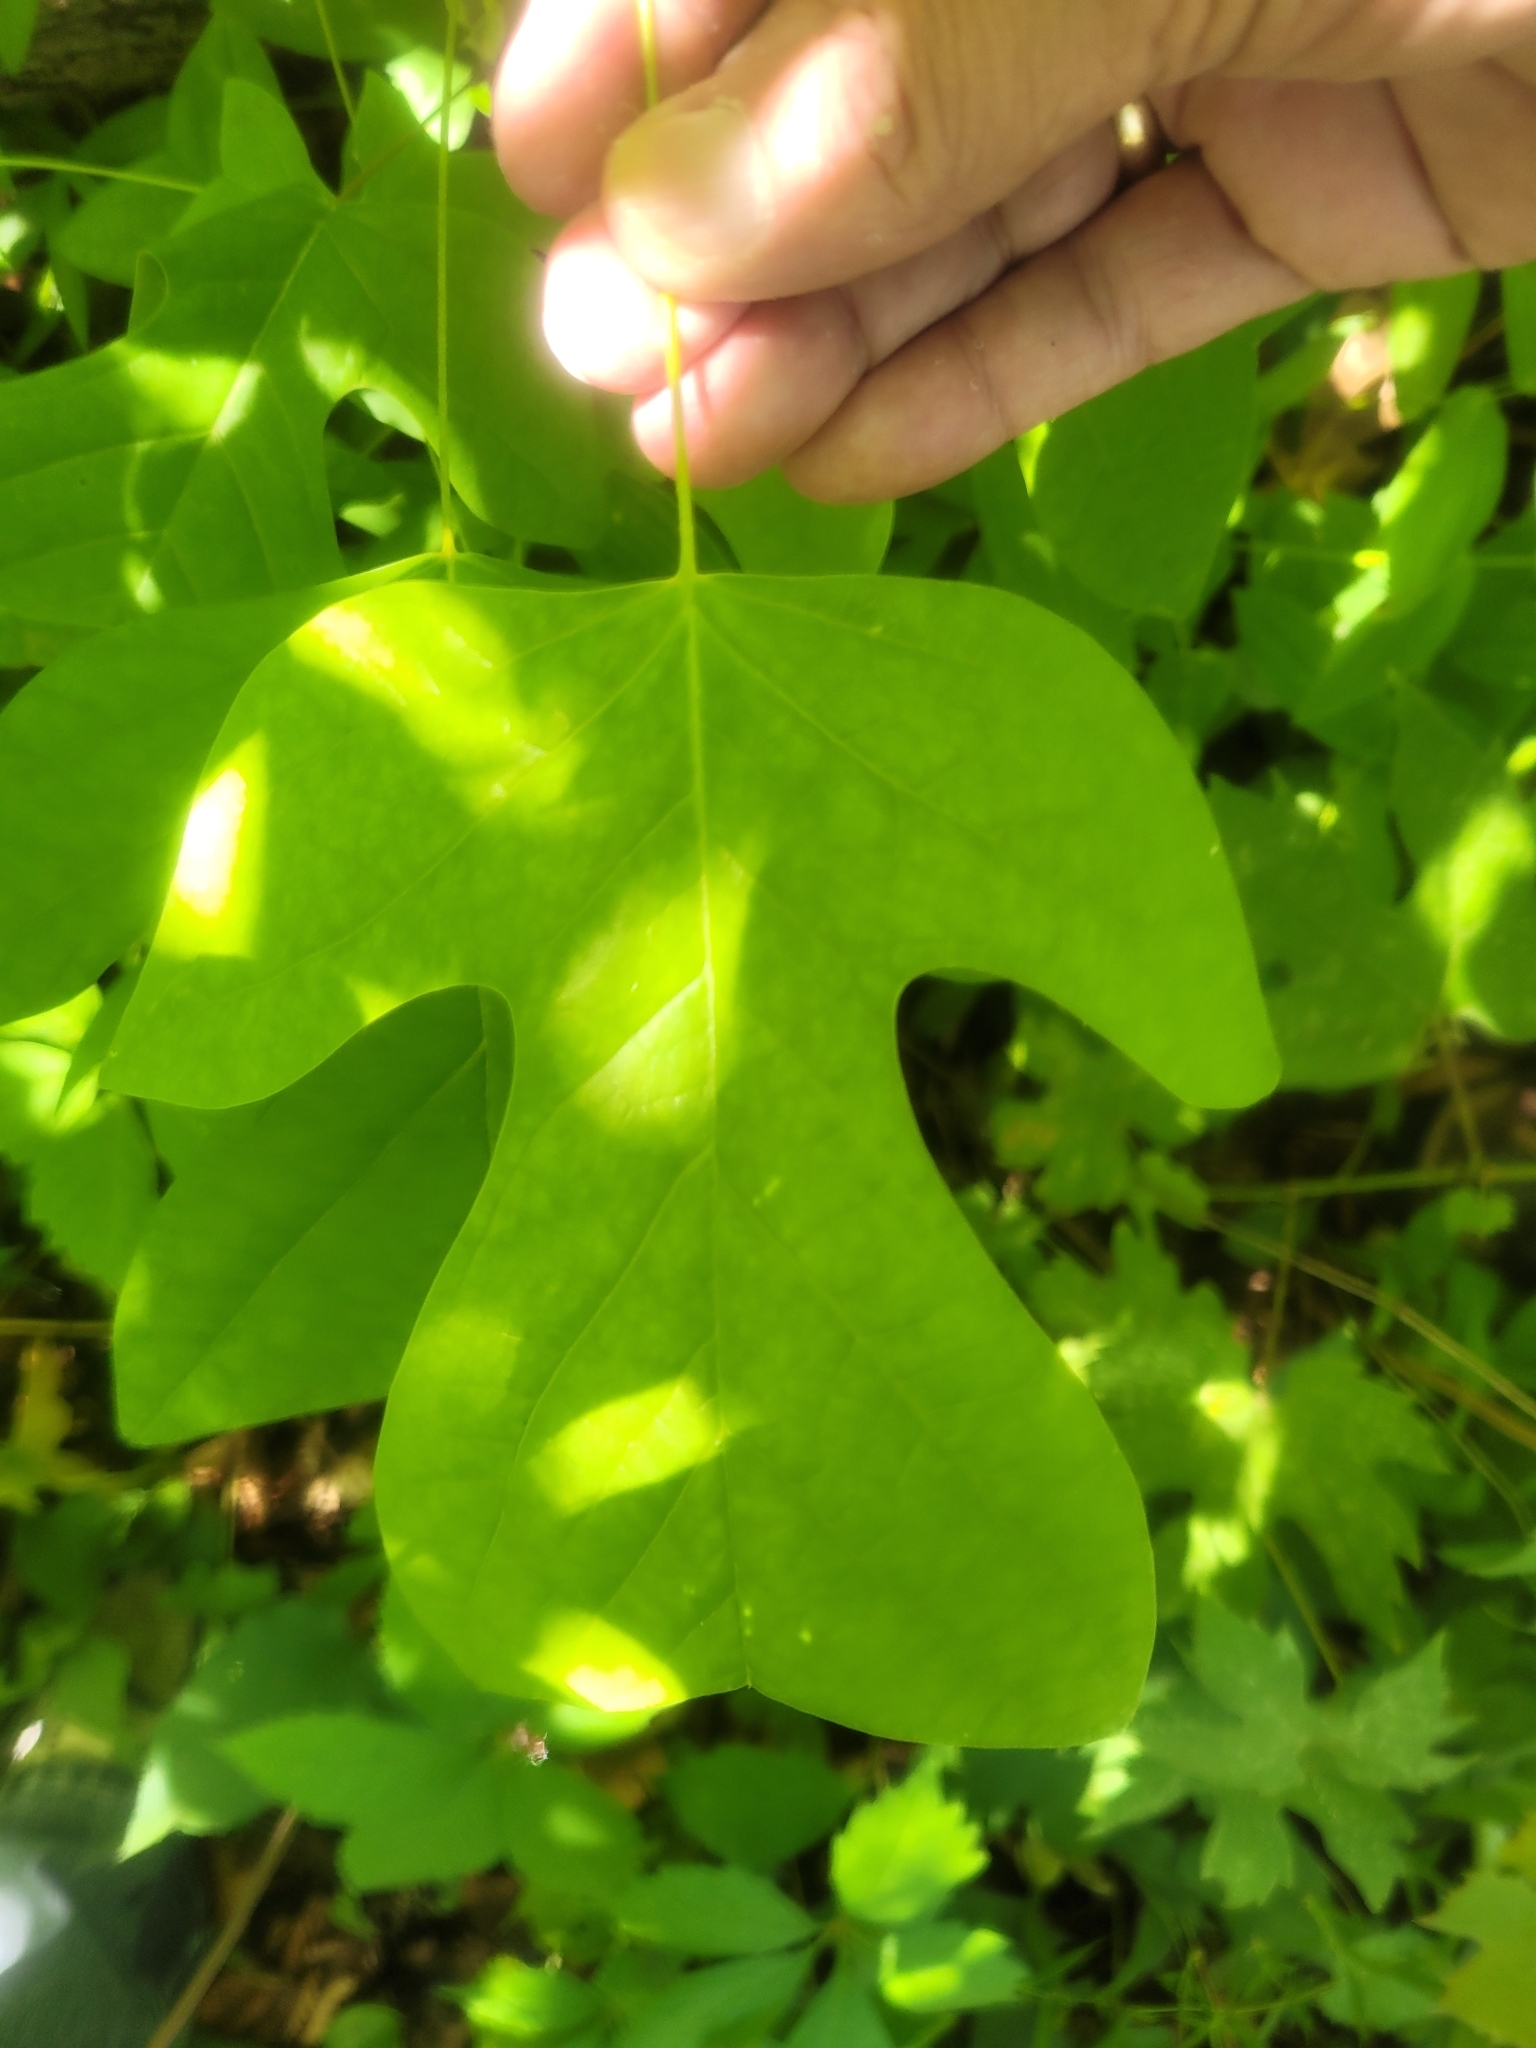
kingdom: Plantae
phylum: Tracheophyta
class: Magnoliopsida
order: Magnoliales
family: Magnoliaceae
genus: Liriodendron
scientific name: Liriodendron tulipifera
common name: Tulip tree
